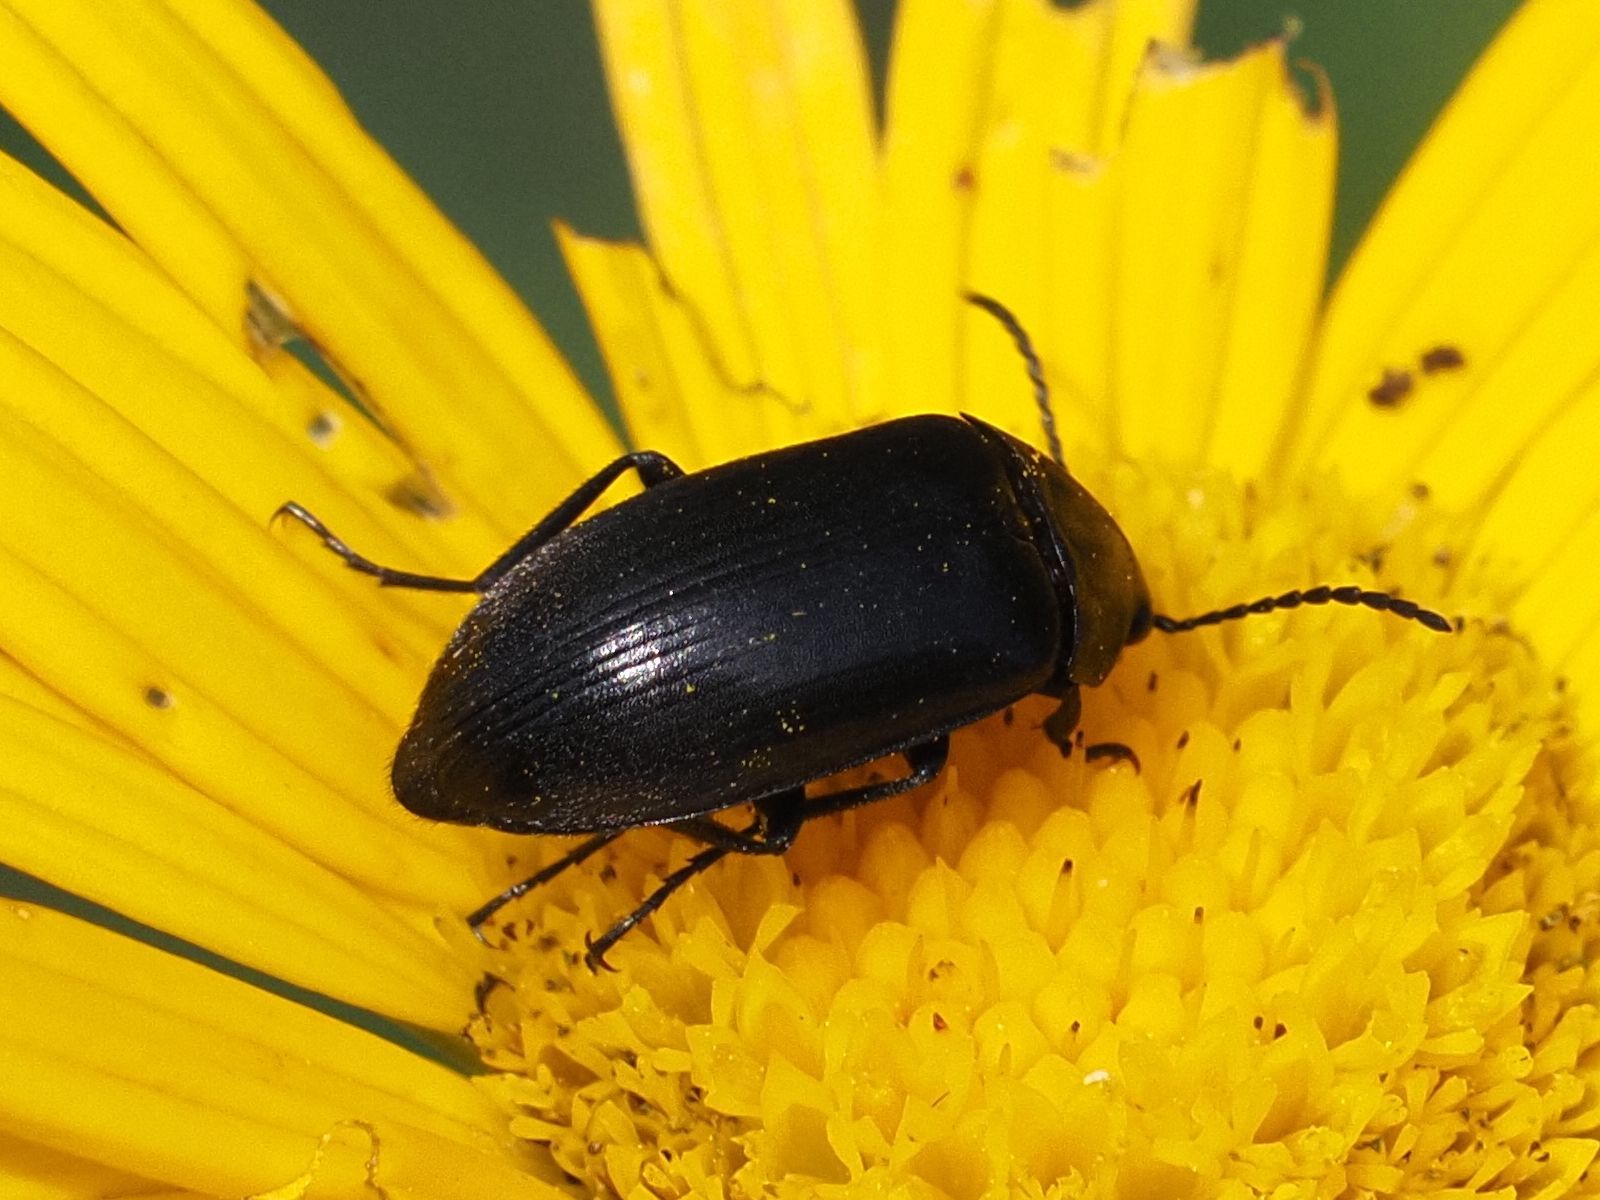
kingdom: Animalia
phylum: Arthropoda
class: Insecta
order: Coleoptera
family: Tenebrionidae
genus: Podonta
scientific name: Podonta nigrita
